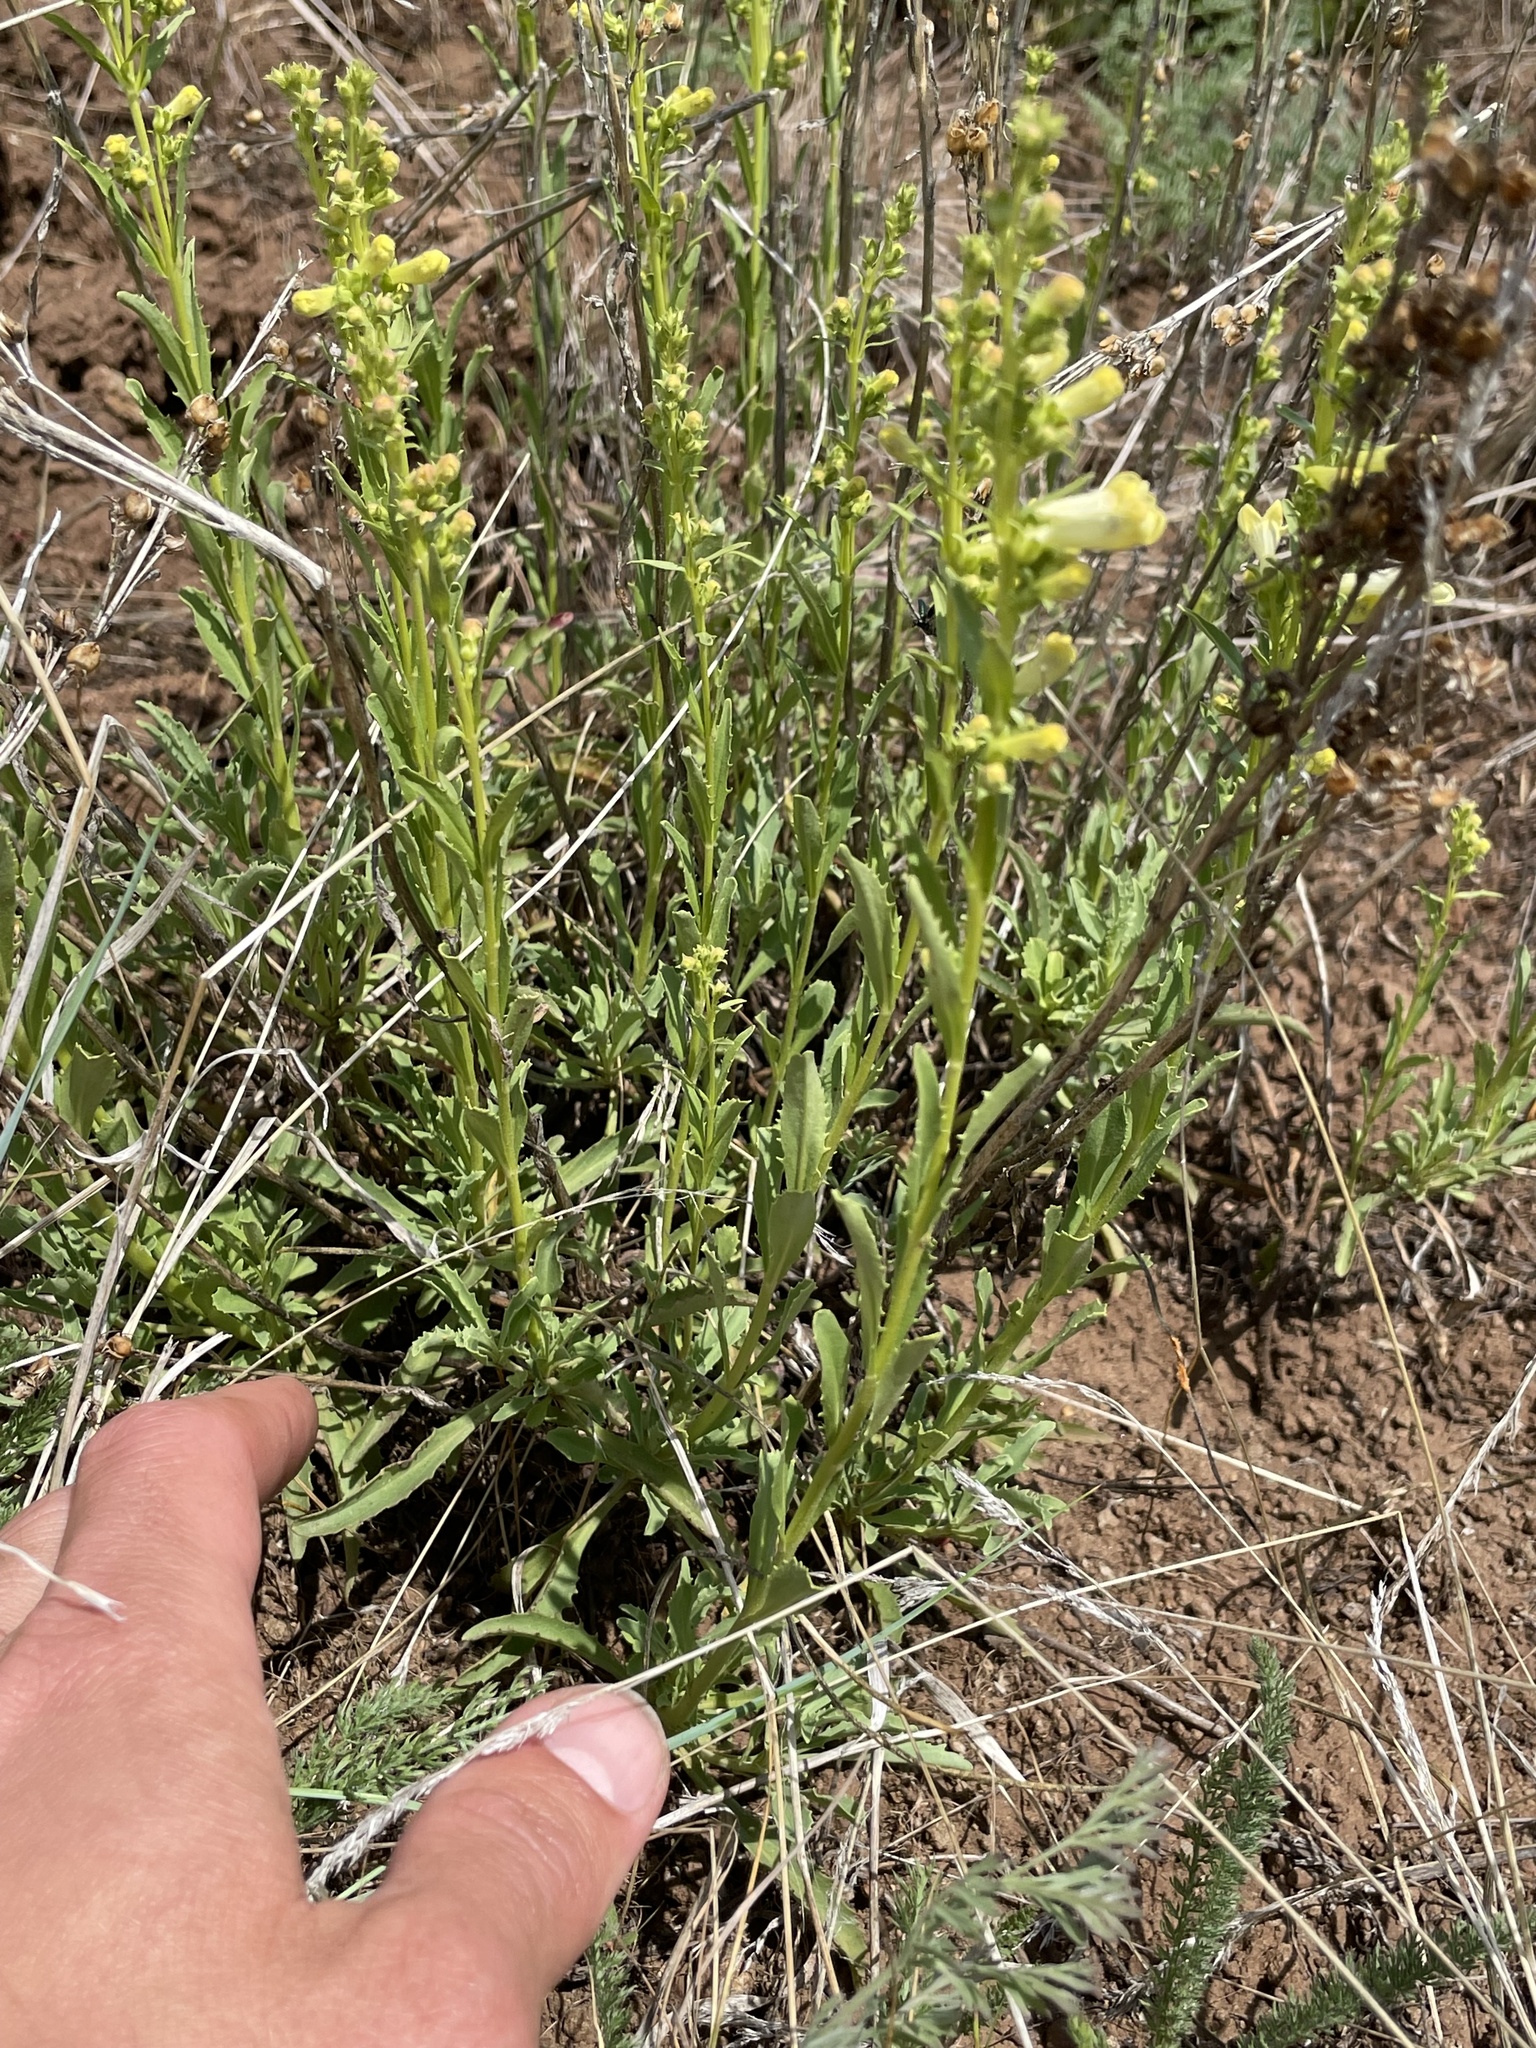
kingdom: Plantae
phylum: Tracheophyta
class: Magnoliopsida
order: Lamiales
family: Plantaginaceae
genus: Penstemon
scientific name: Penstemon deustus
